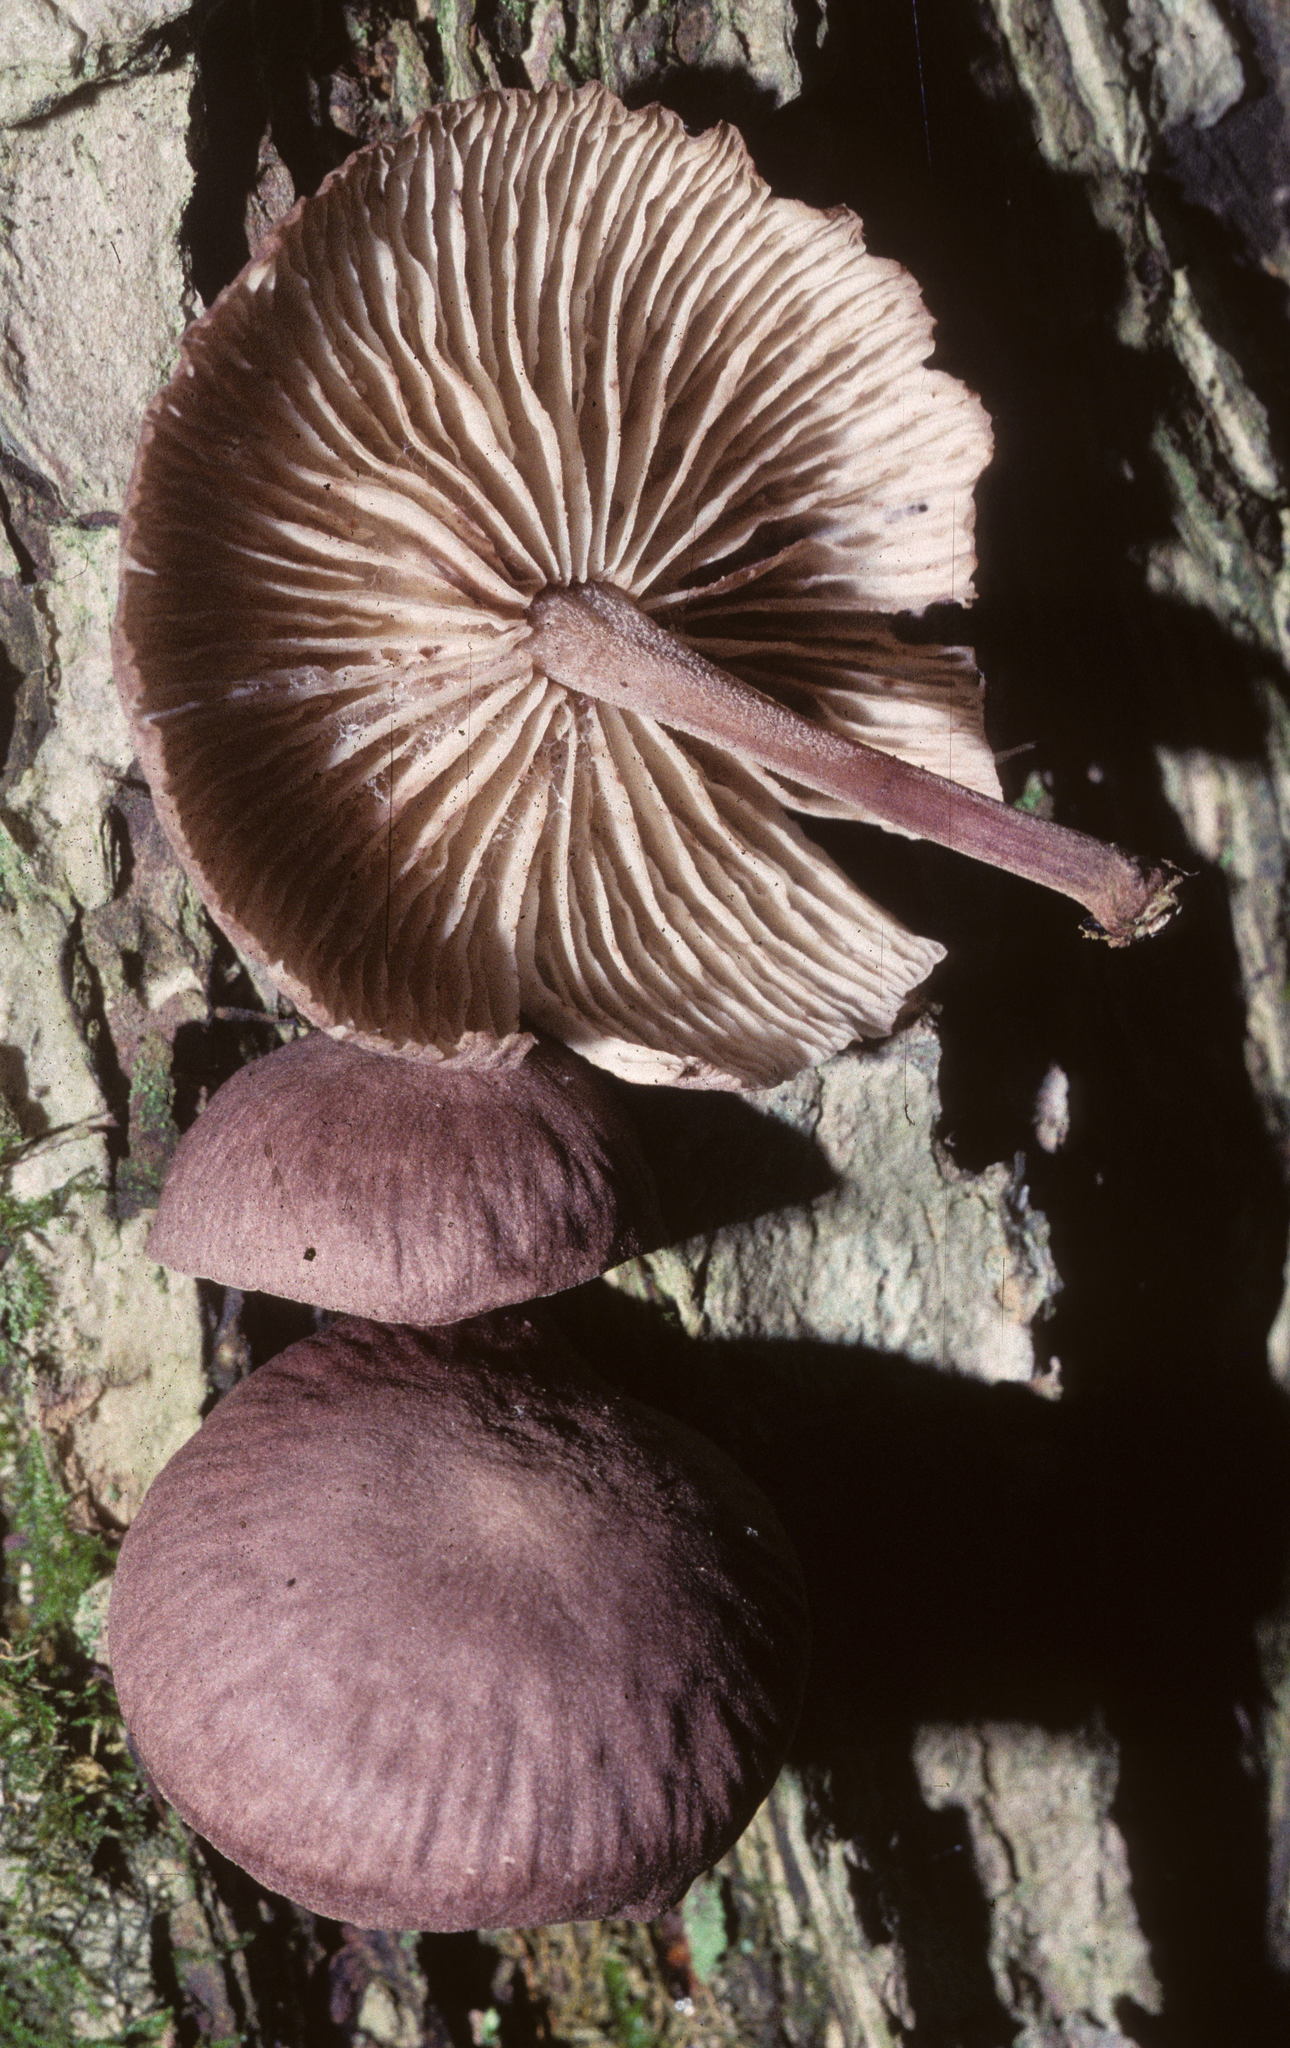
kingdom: Fungi
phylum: Basidiomycota
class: Agaricomycetes
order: Agaricales
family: Omphalotaceae
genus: Collybiopsis
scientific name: Collybiopsis dichroa
